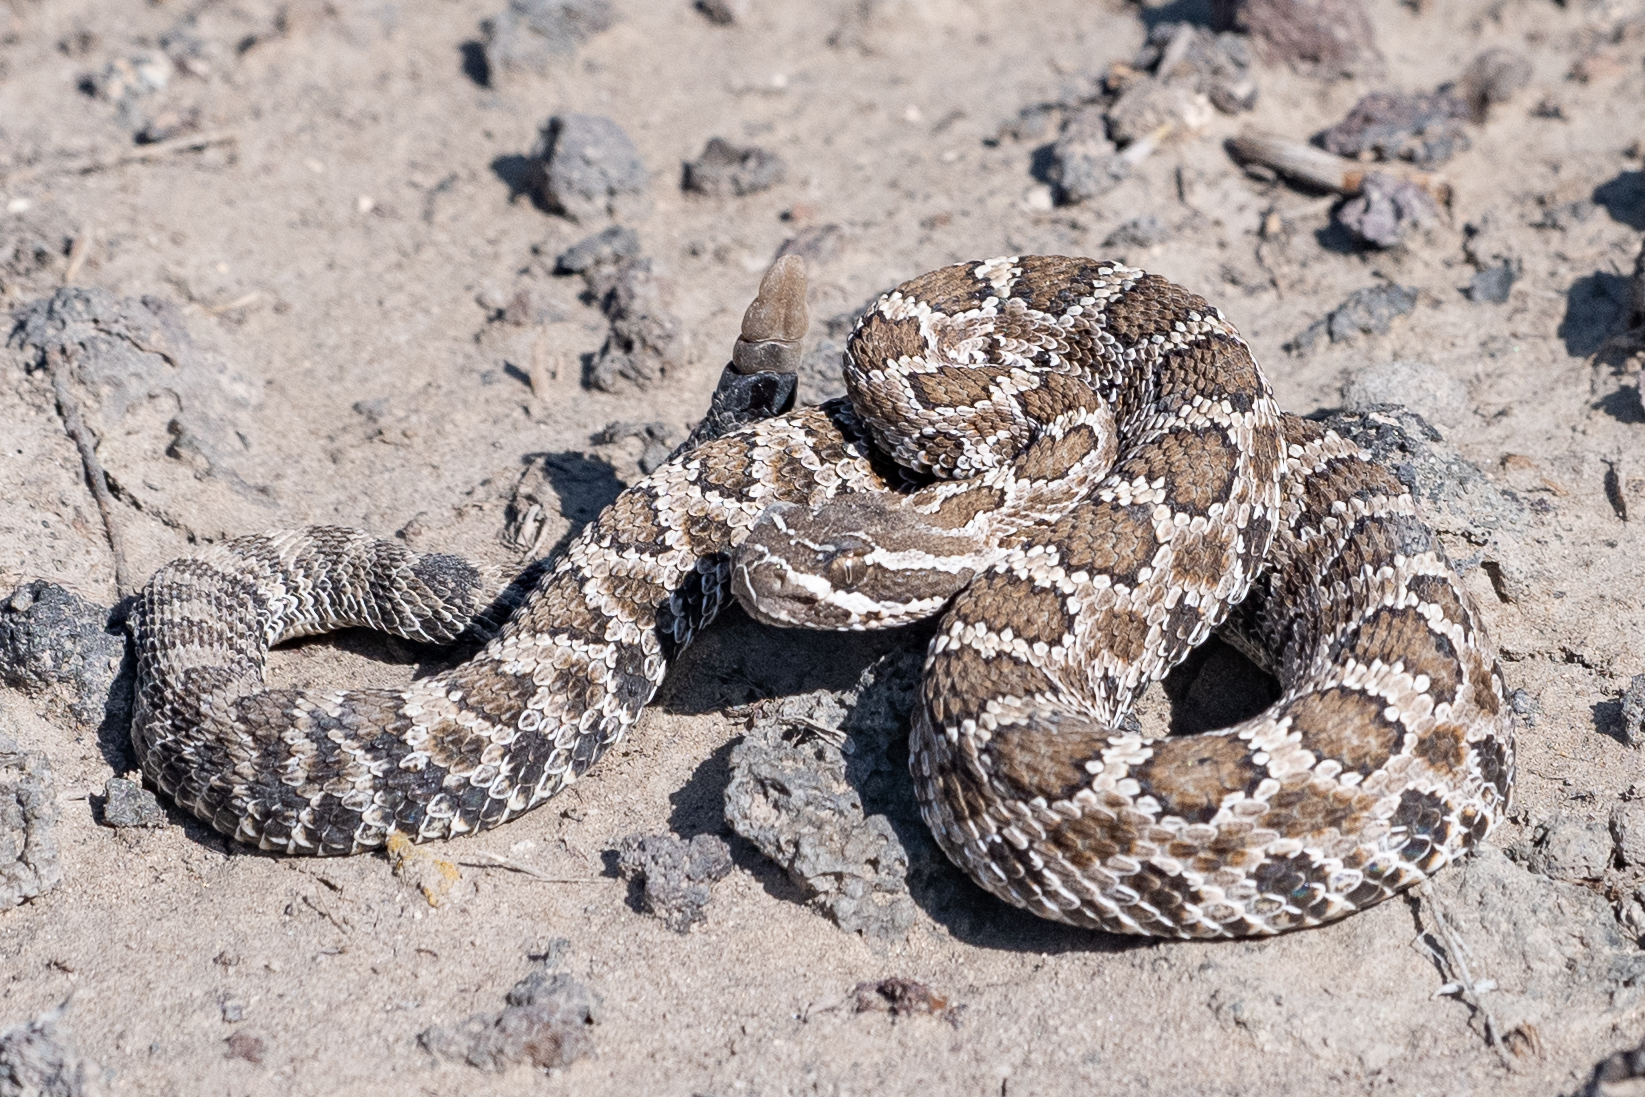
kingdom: Animalia
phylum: Chordata
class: Squamata
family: Viperidae
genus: Crotalus
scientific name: Crotalus oreganus
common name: Abyssus
